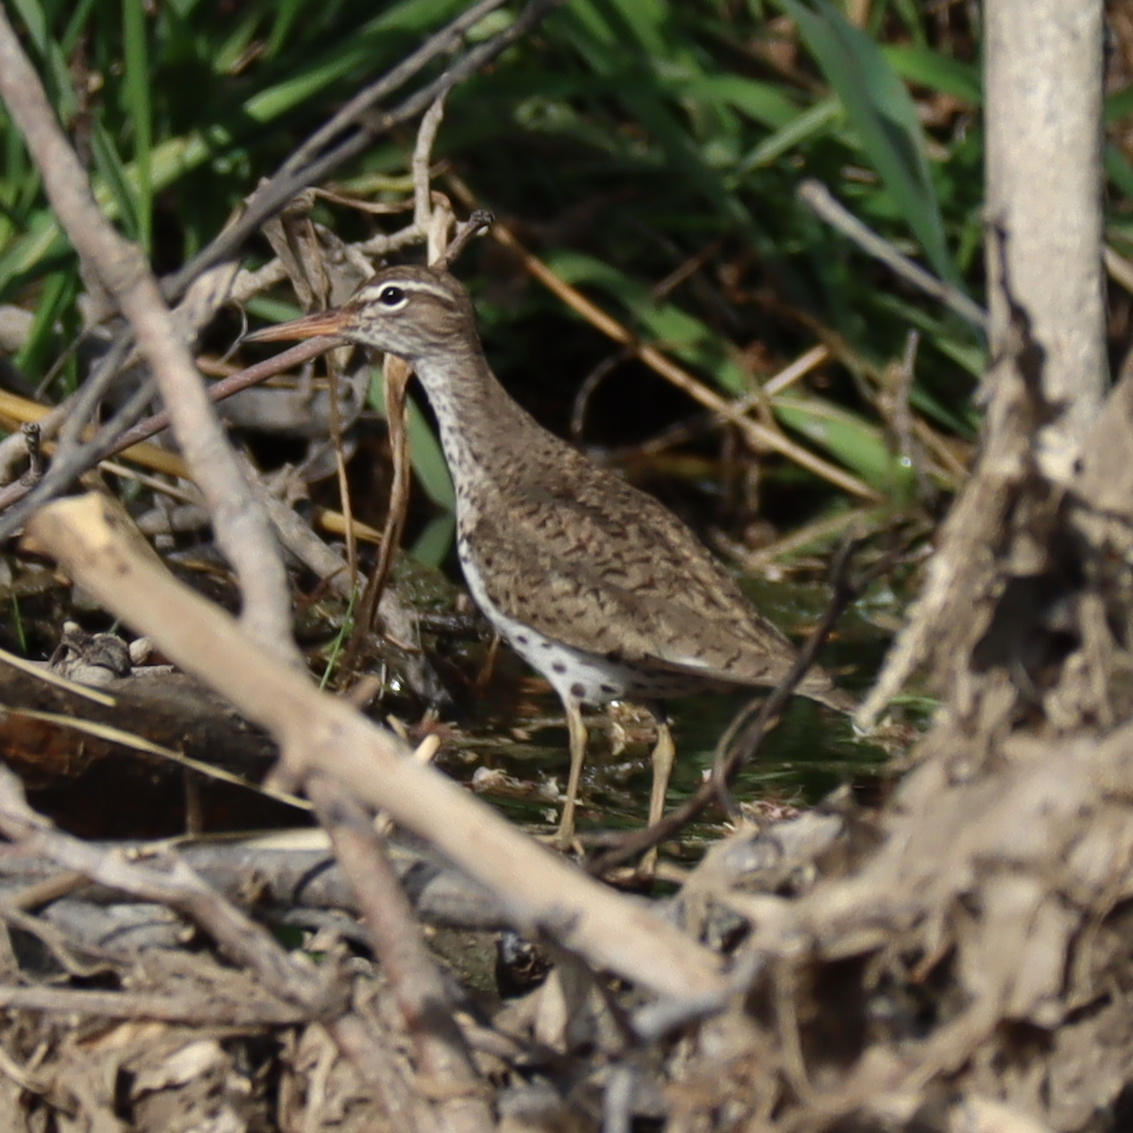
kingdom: Animalia
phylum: Chordata
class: Aves
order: Charadriiformes
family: Scolopacidae
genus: Actitis
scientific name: Actitis macularius
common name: Spotted sandpiper
